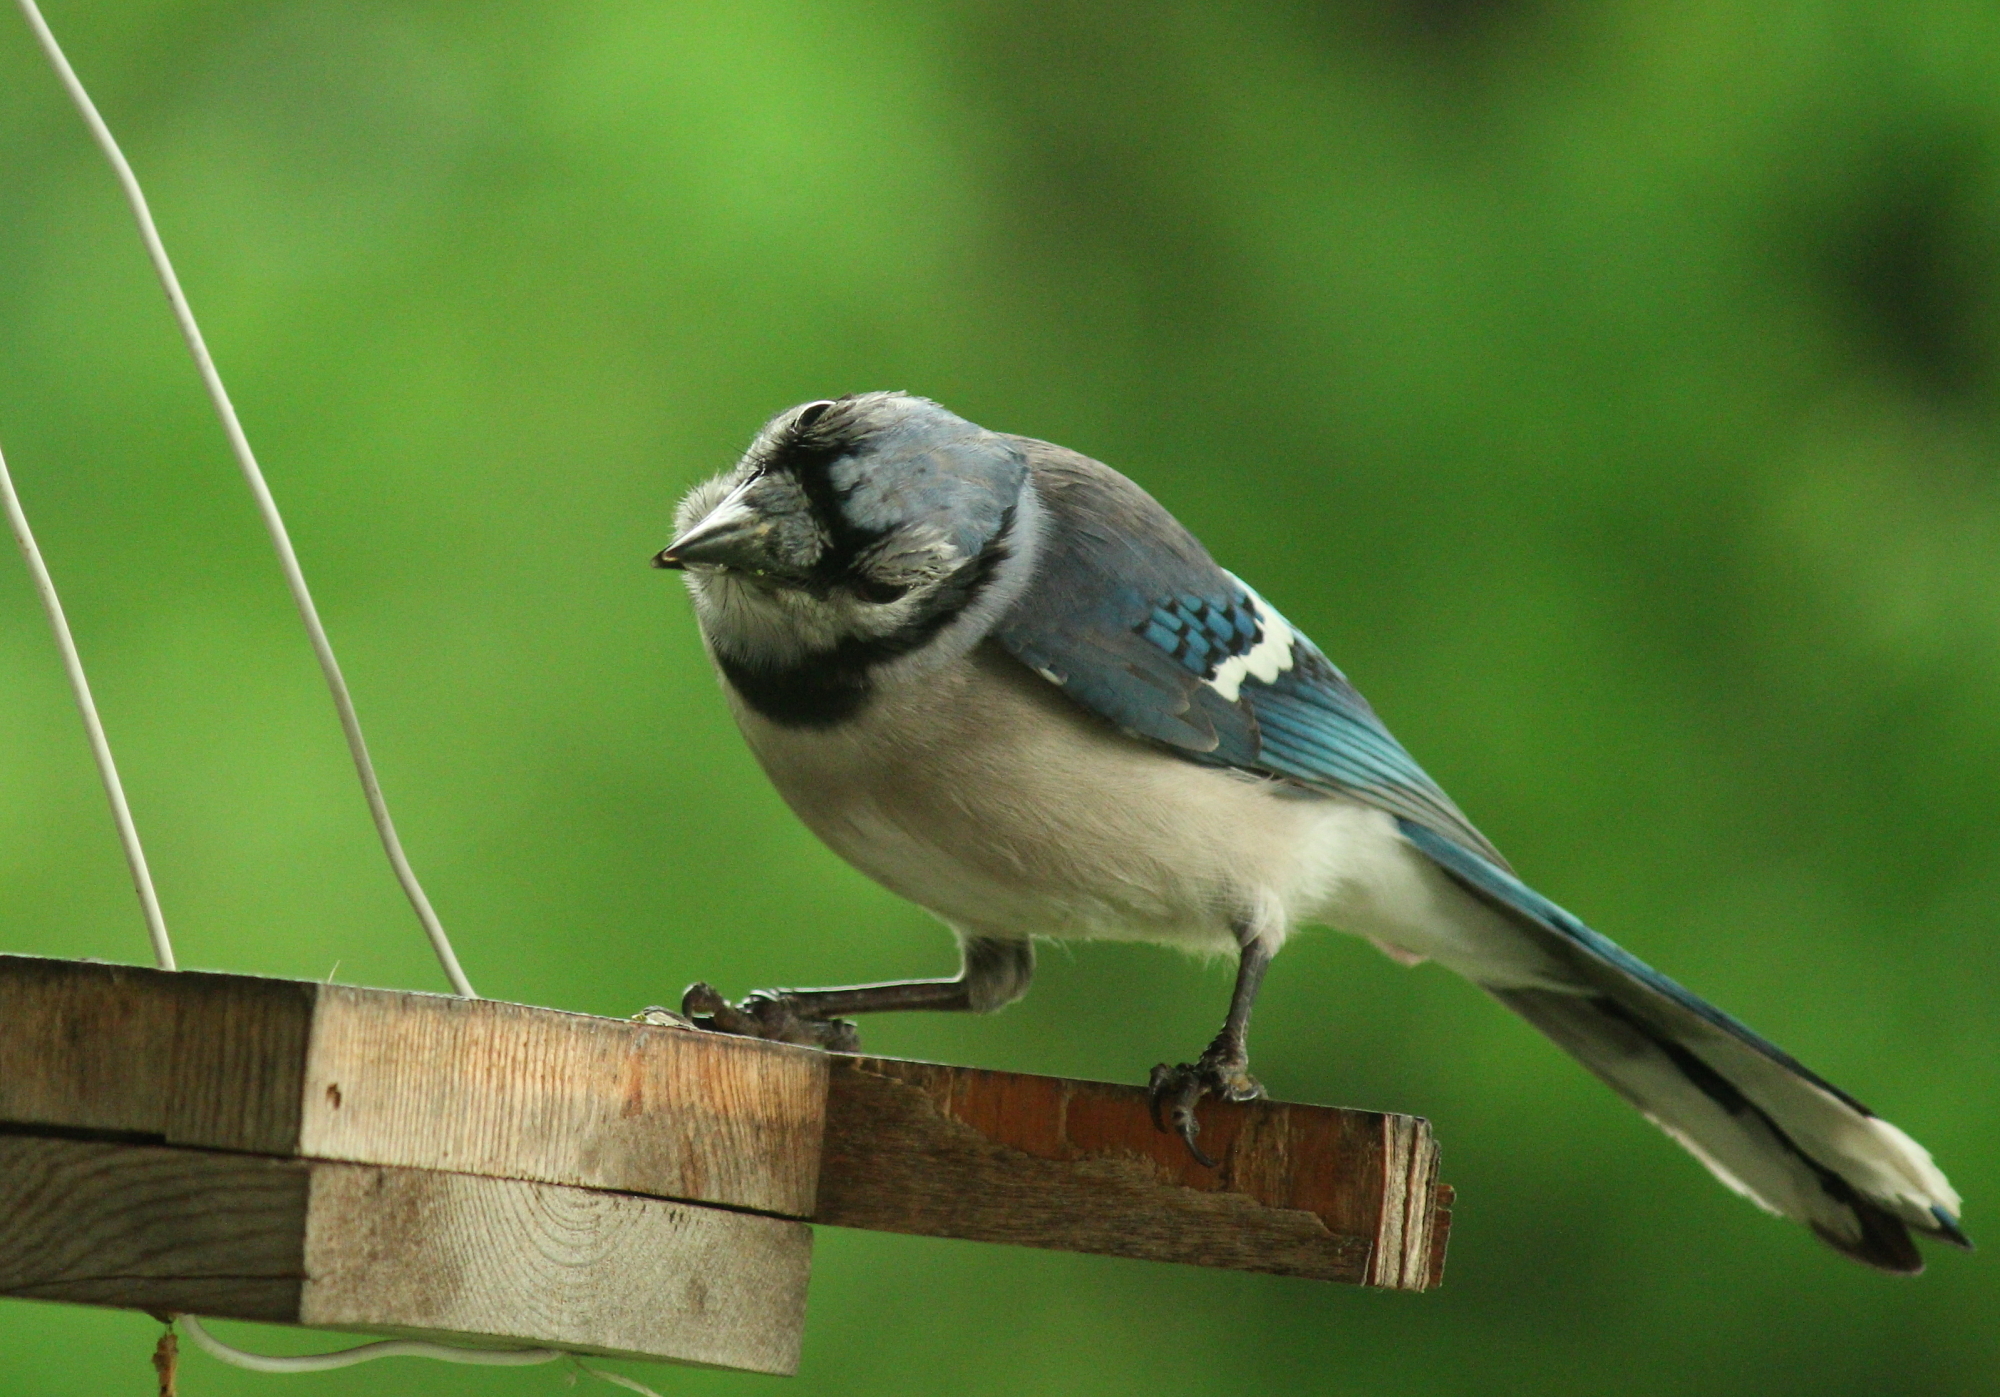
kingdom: Animalia
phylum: Chordata
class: Aves
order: Passeriformes
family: Corvidae
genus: Cyanocitta
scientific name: Cyanocitta cristata
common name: Blue jay
